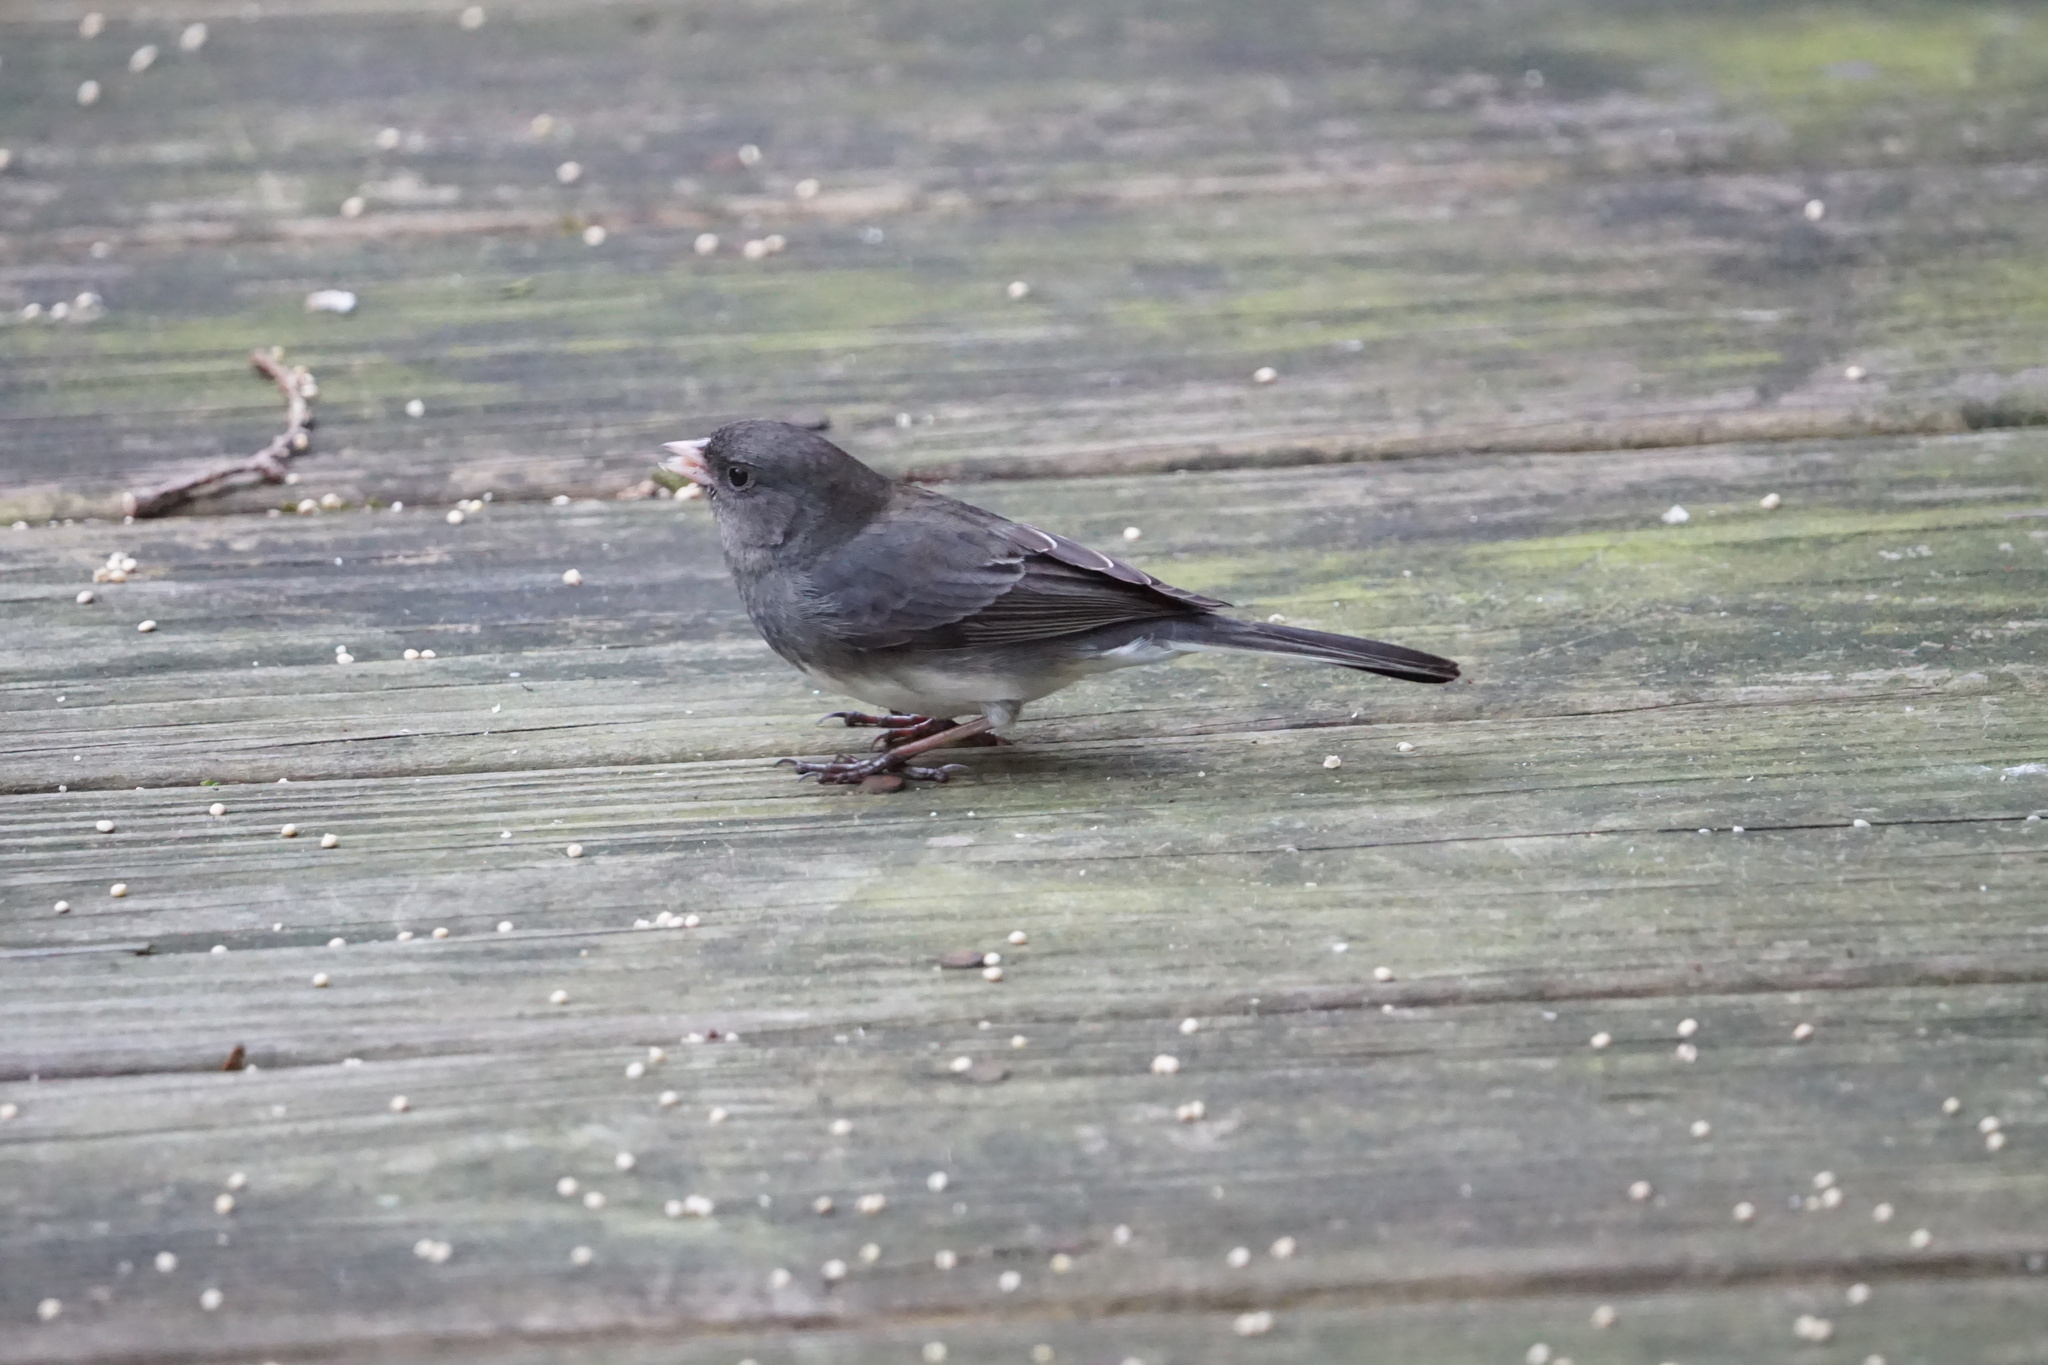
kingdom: Animalia
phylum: Chordata
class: Aves
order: Passeriformes
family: Passerellidae
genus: Junco
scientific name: Junco hyemalis
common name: Dark-eyed junco
